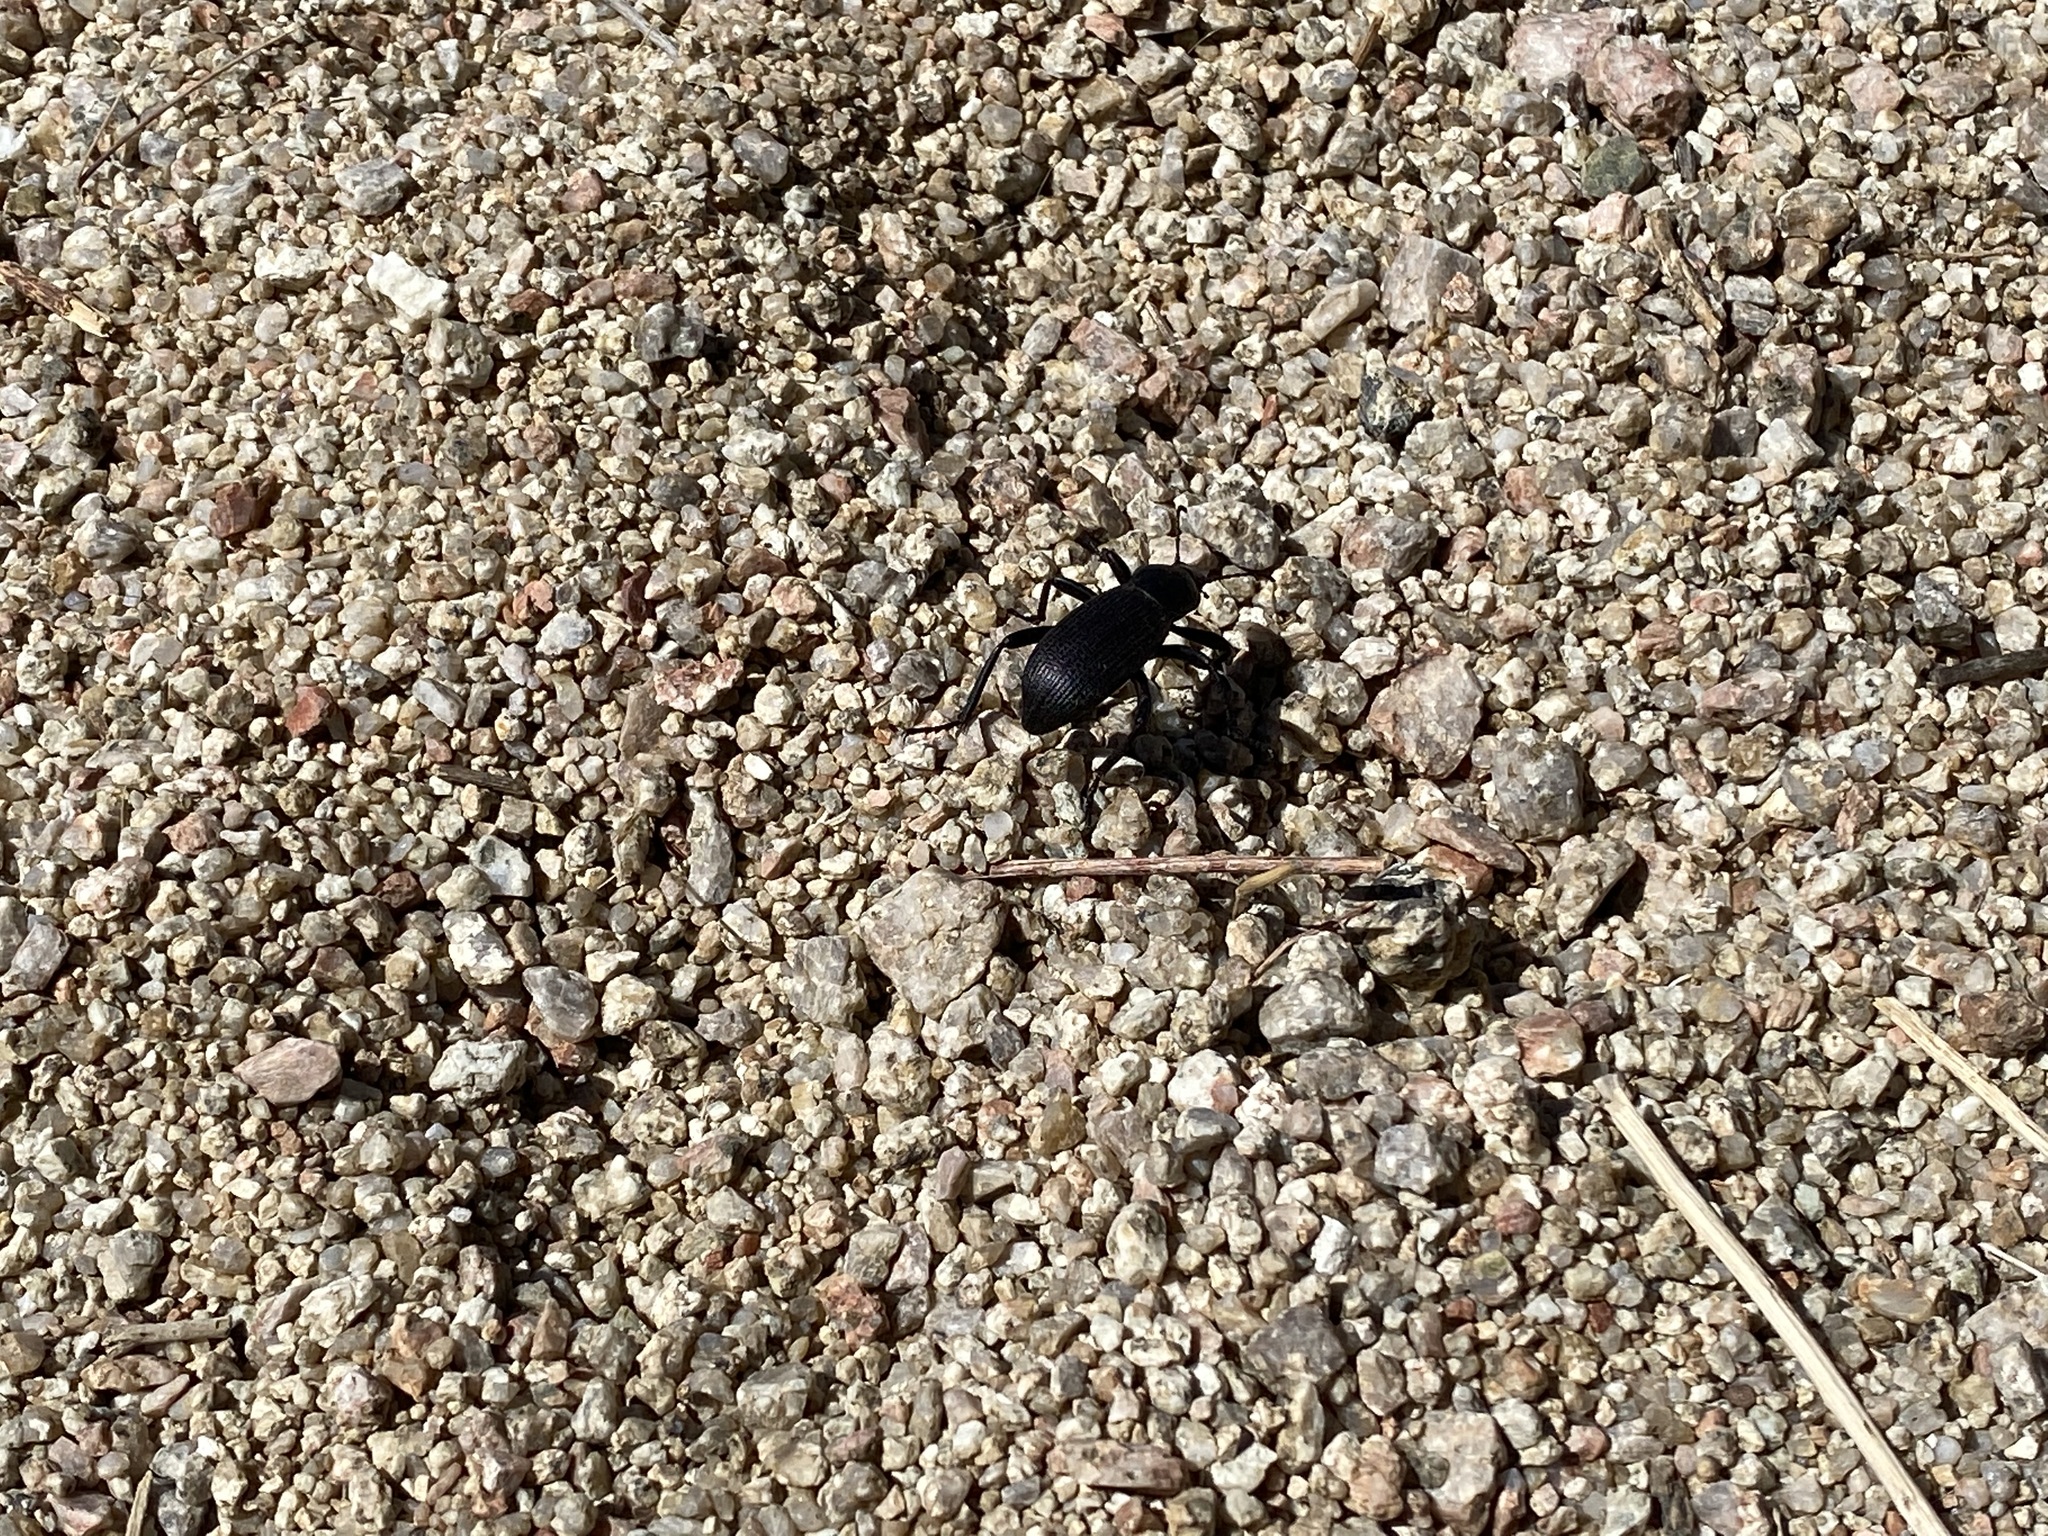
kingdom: Animalia
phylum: Arthropoda
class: Insecta
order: Coleoptera
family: Tenebrionidae
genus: Eleodes
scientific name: Eleodes obscura
